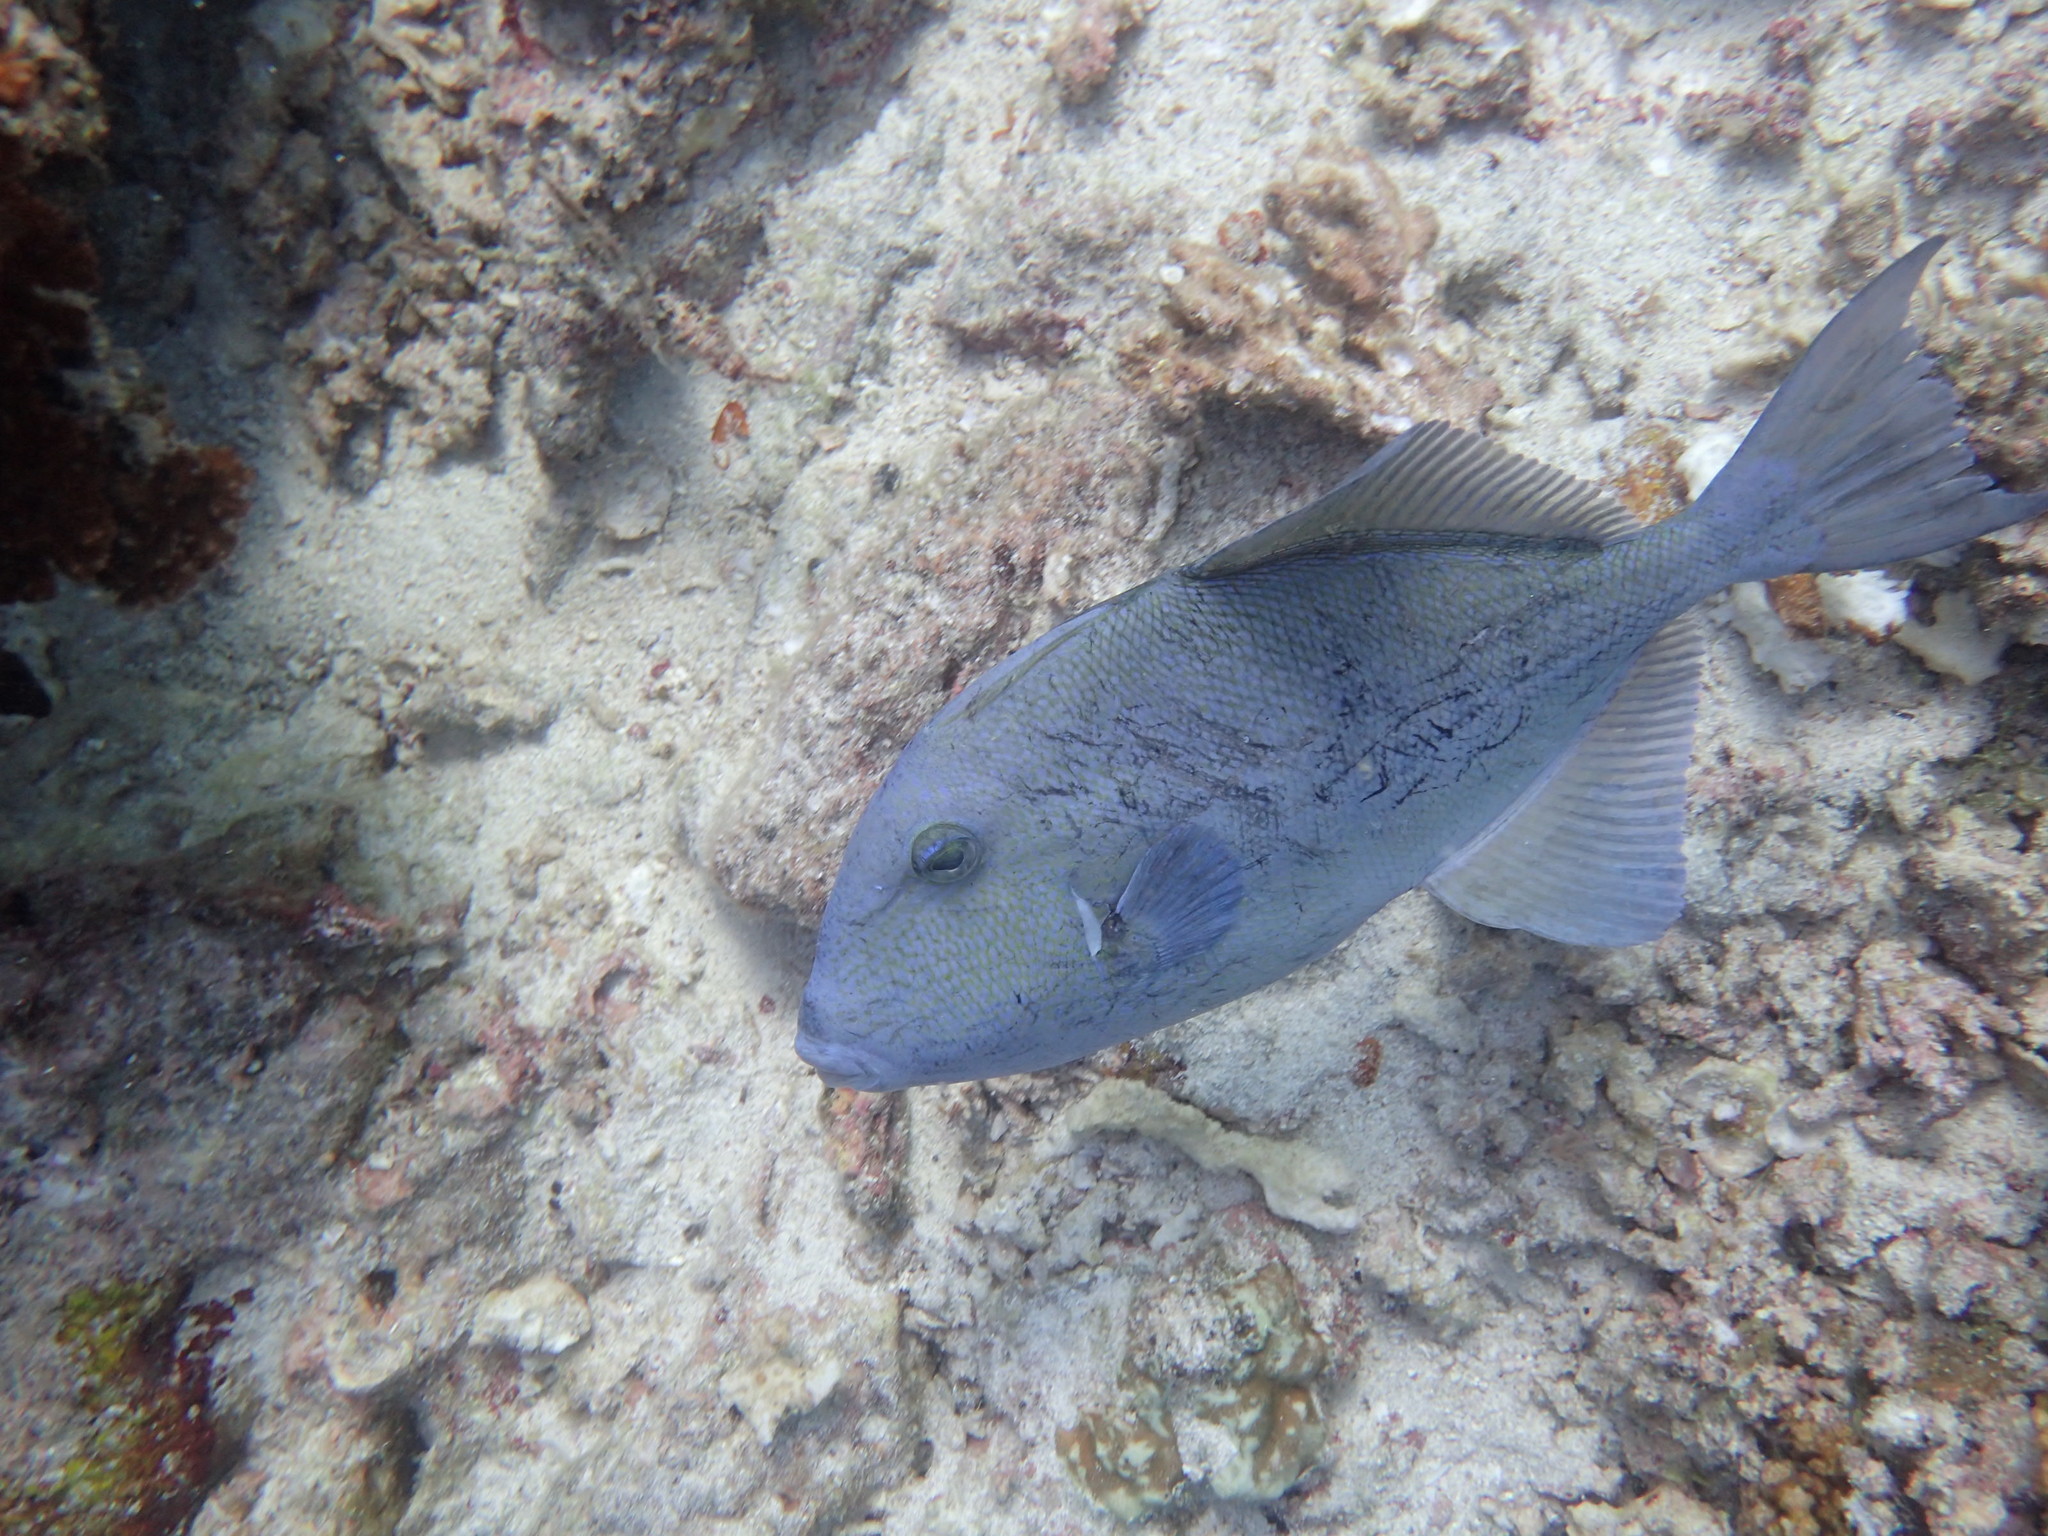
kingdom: Animalia
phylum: Chordata
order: Tetraodontiformes
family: Balistidae
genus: Balistes
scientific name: Balistes polylepis
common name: Finescale triggerfish
